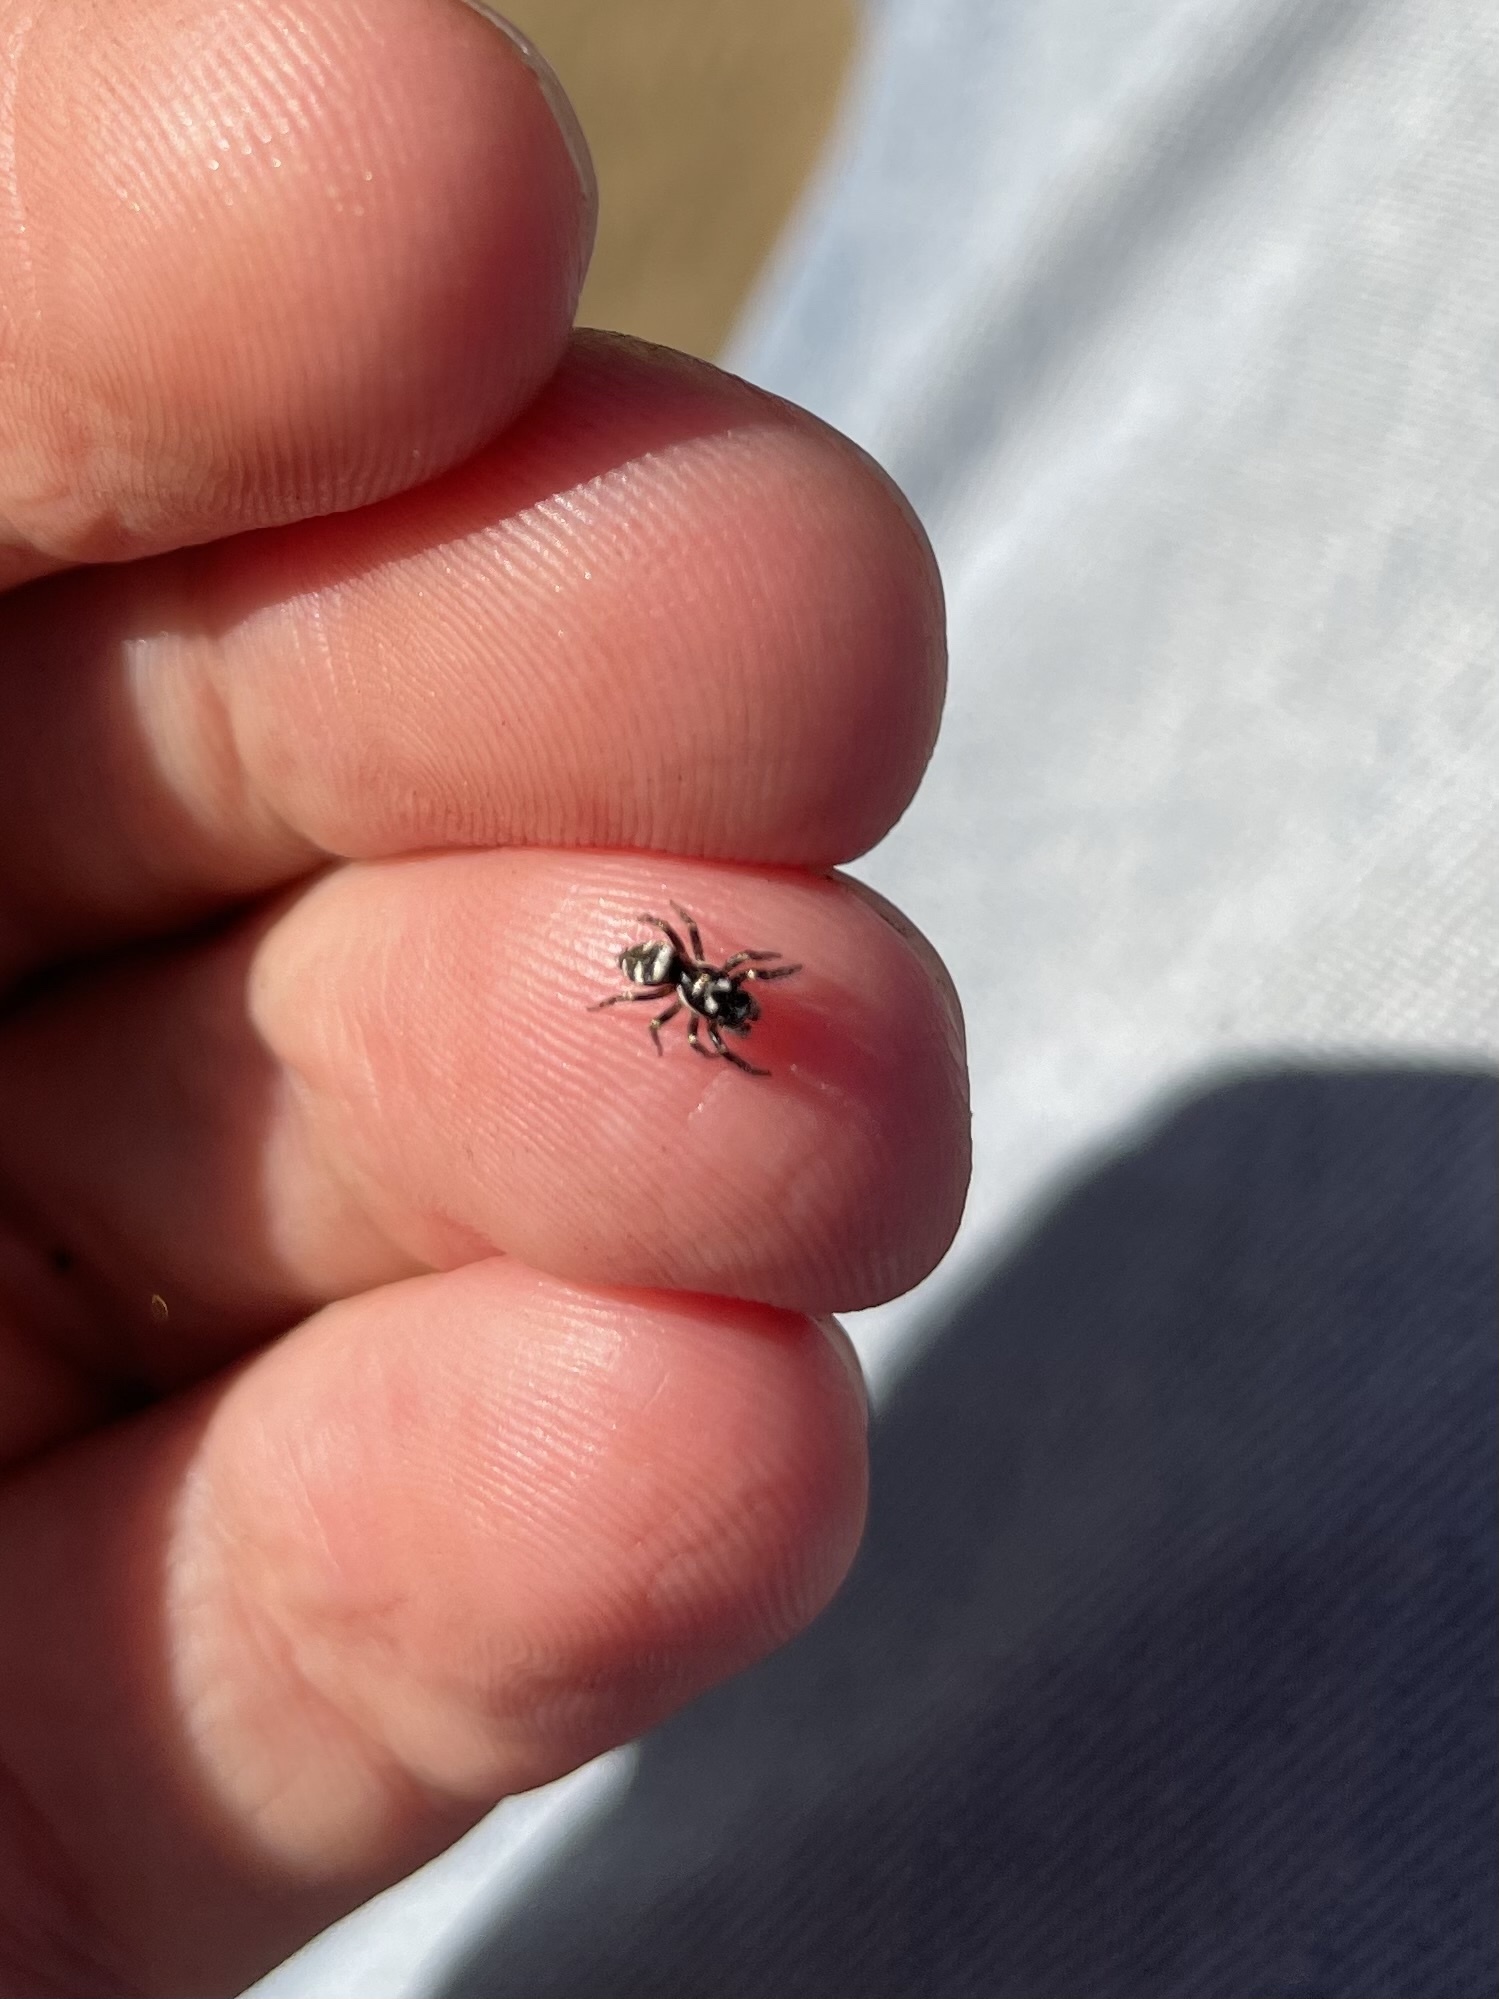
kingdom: Animalia
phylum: Arthropoda
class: Arachnida
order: Araneae
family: Salticidae
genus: Salticus
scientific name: Salticus scenicus
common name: Zebra jumper
